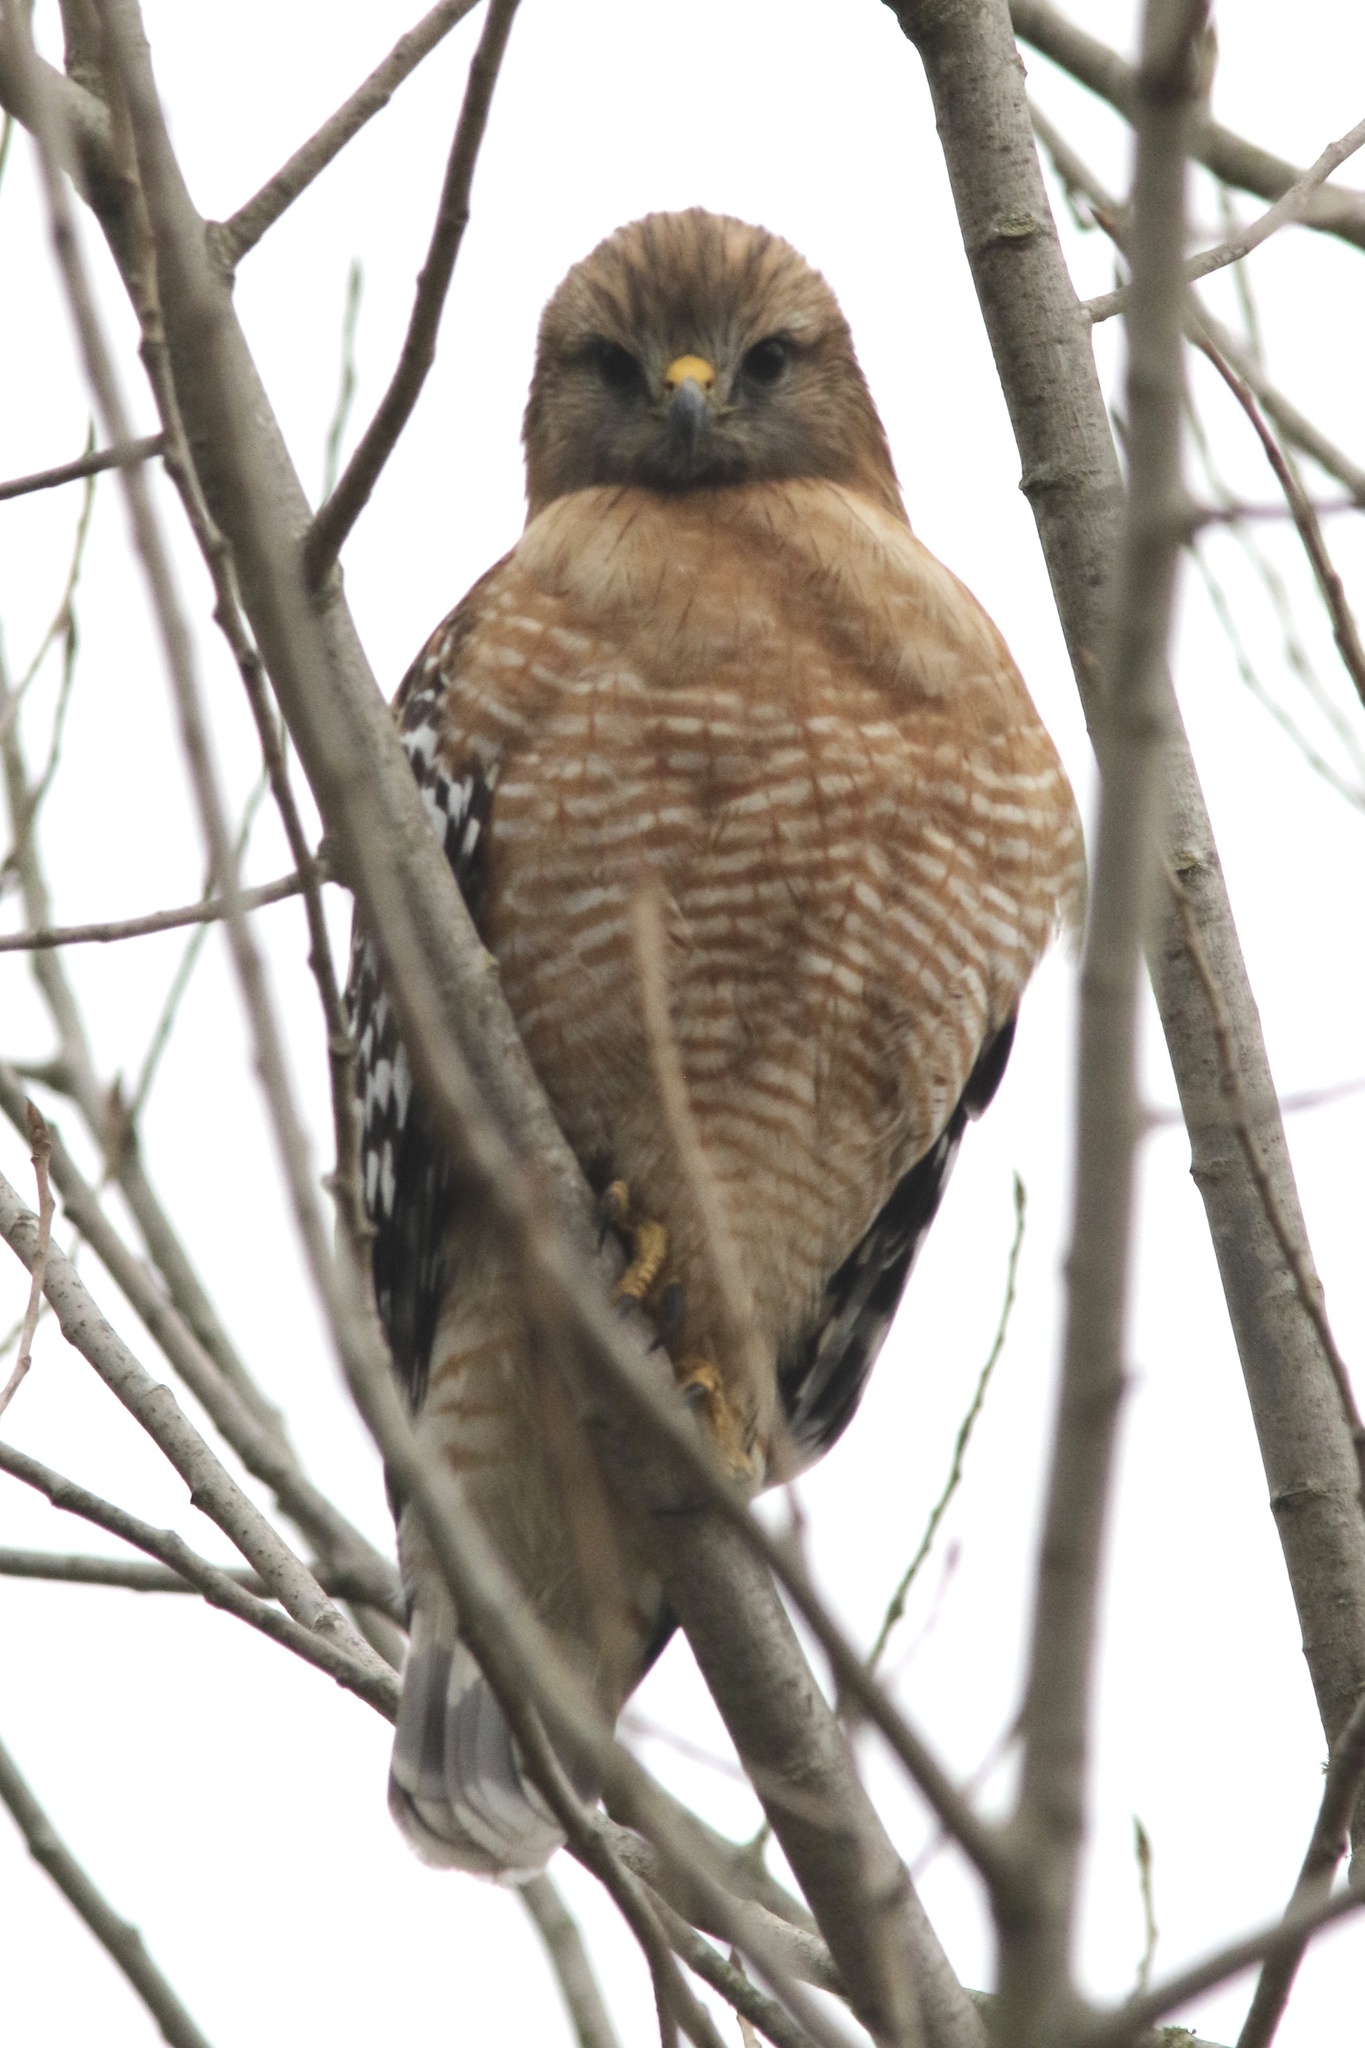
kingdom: Animalia
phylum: Chordata
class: Aves
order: Accipitriformes
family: Accipitridae
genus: Buteo
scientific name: Buteo lineatus
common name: Red-shouldered hawk
